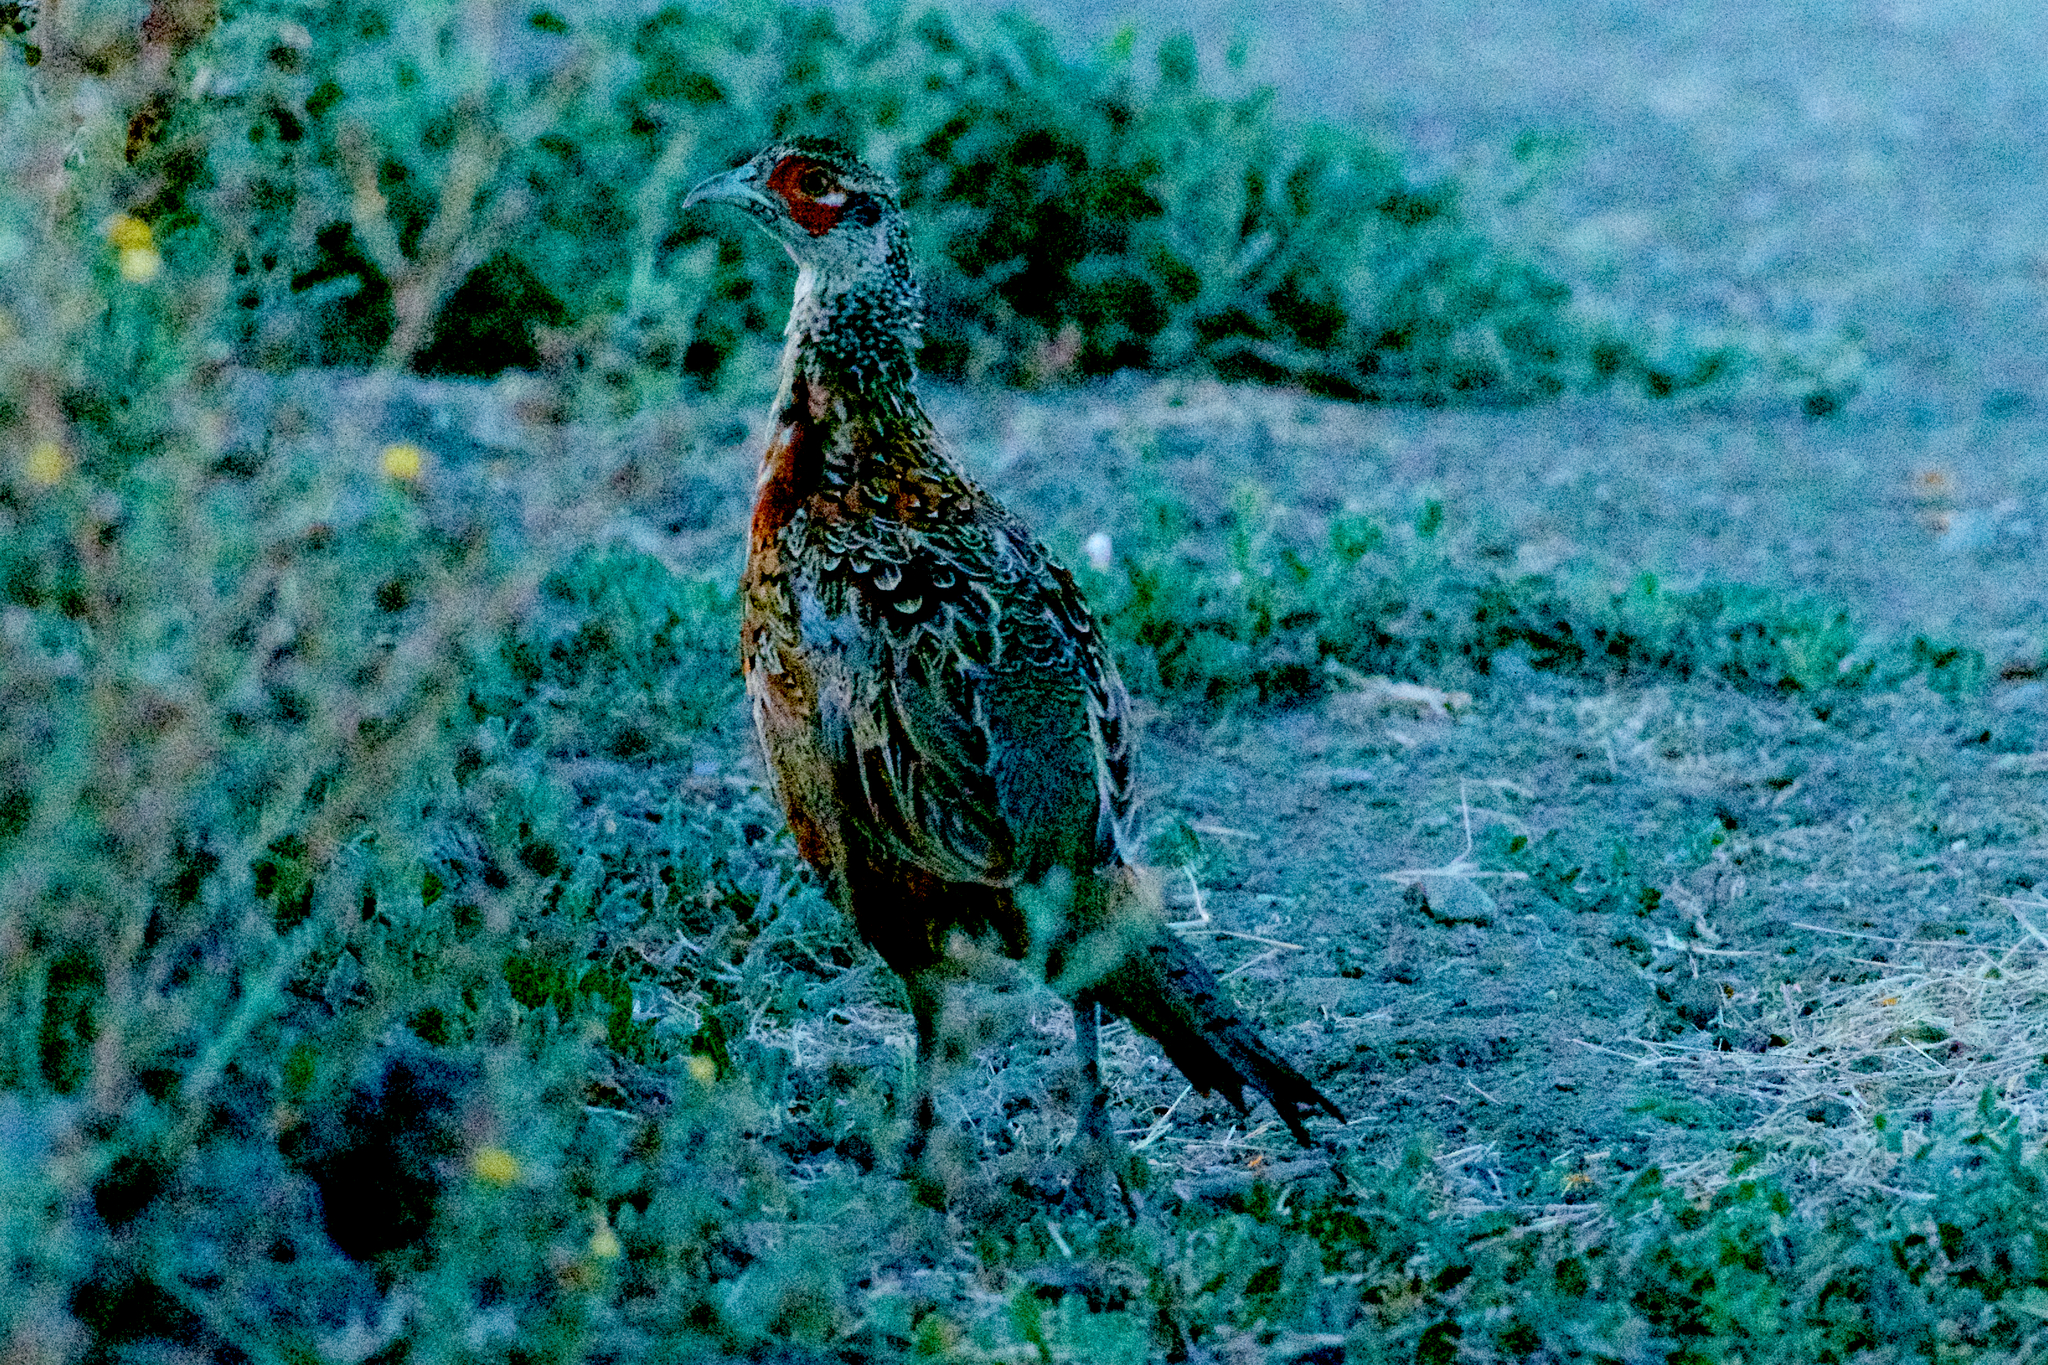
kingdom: Animalia
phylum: Chordata
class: Aves
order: Galliformes
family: Phasianidae
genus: Phasianus
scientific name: Phasianus colchicus
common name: Common pheasant
